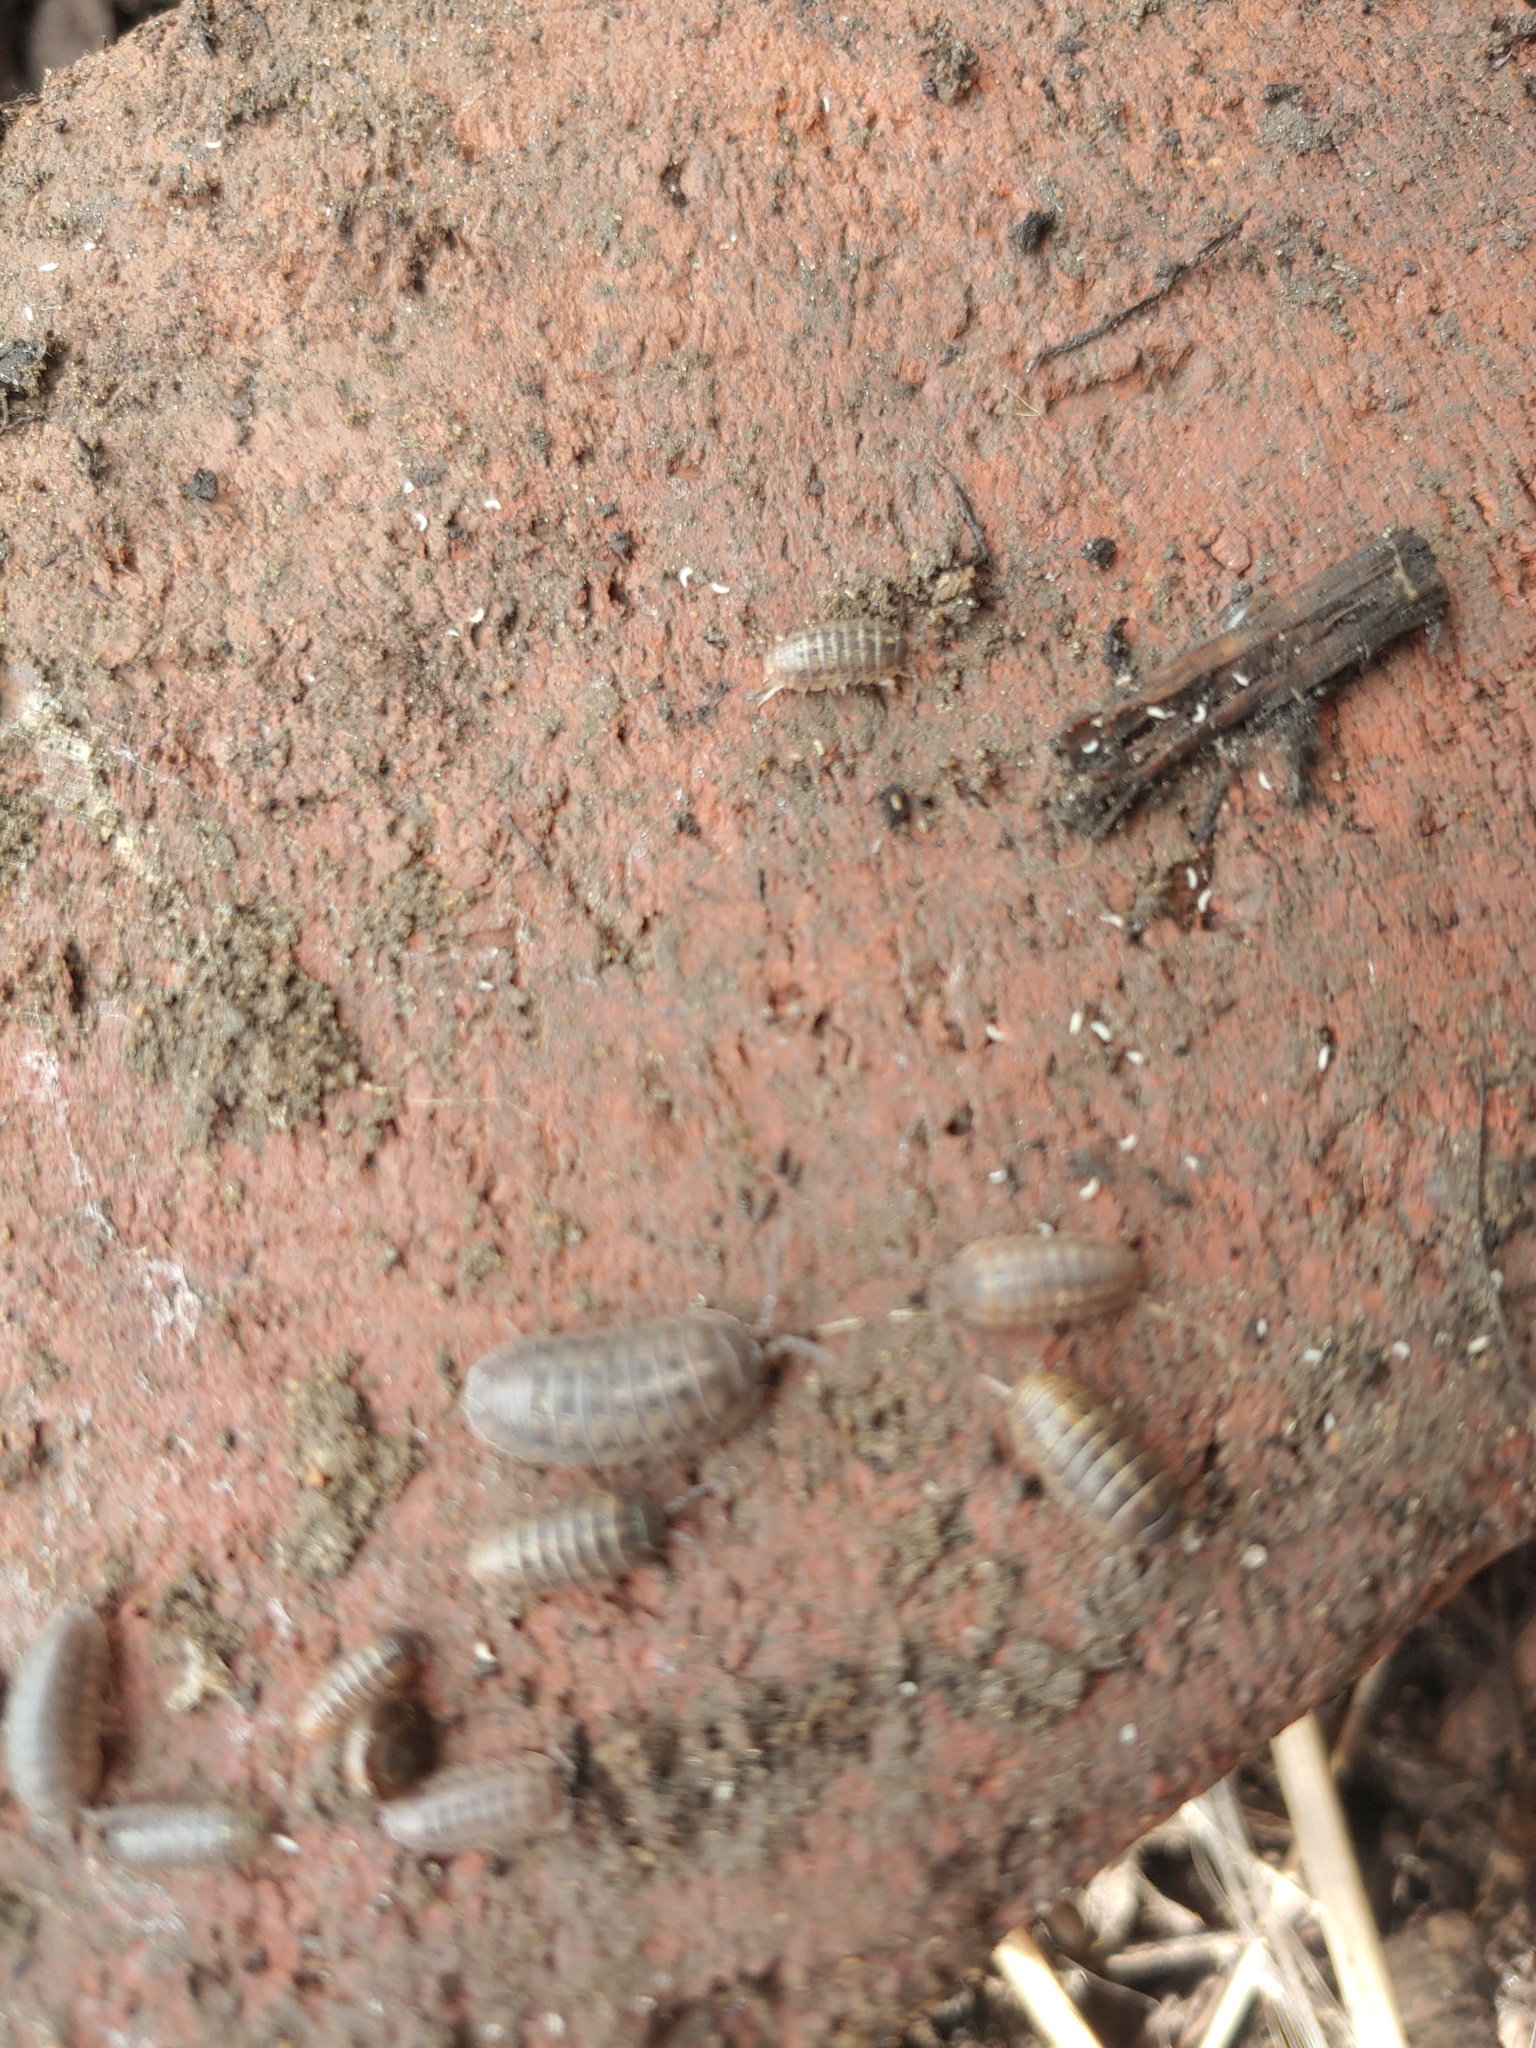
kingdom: Animalia
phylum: Arthropoda
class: Malacostraca
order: Isopoda
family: Armadillidiidae
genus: Armadillidium
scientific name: Armadillidium nasatum
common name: Isopod
